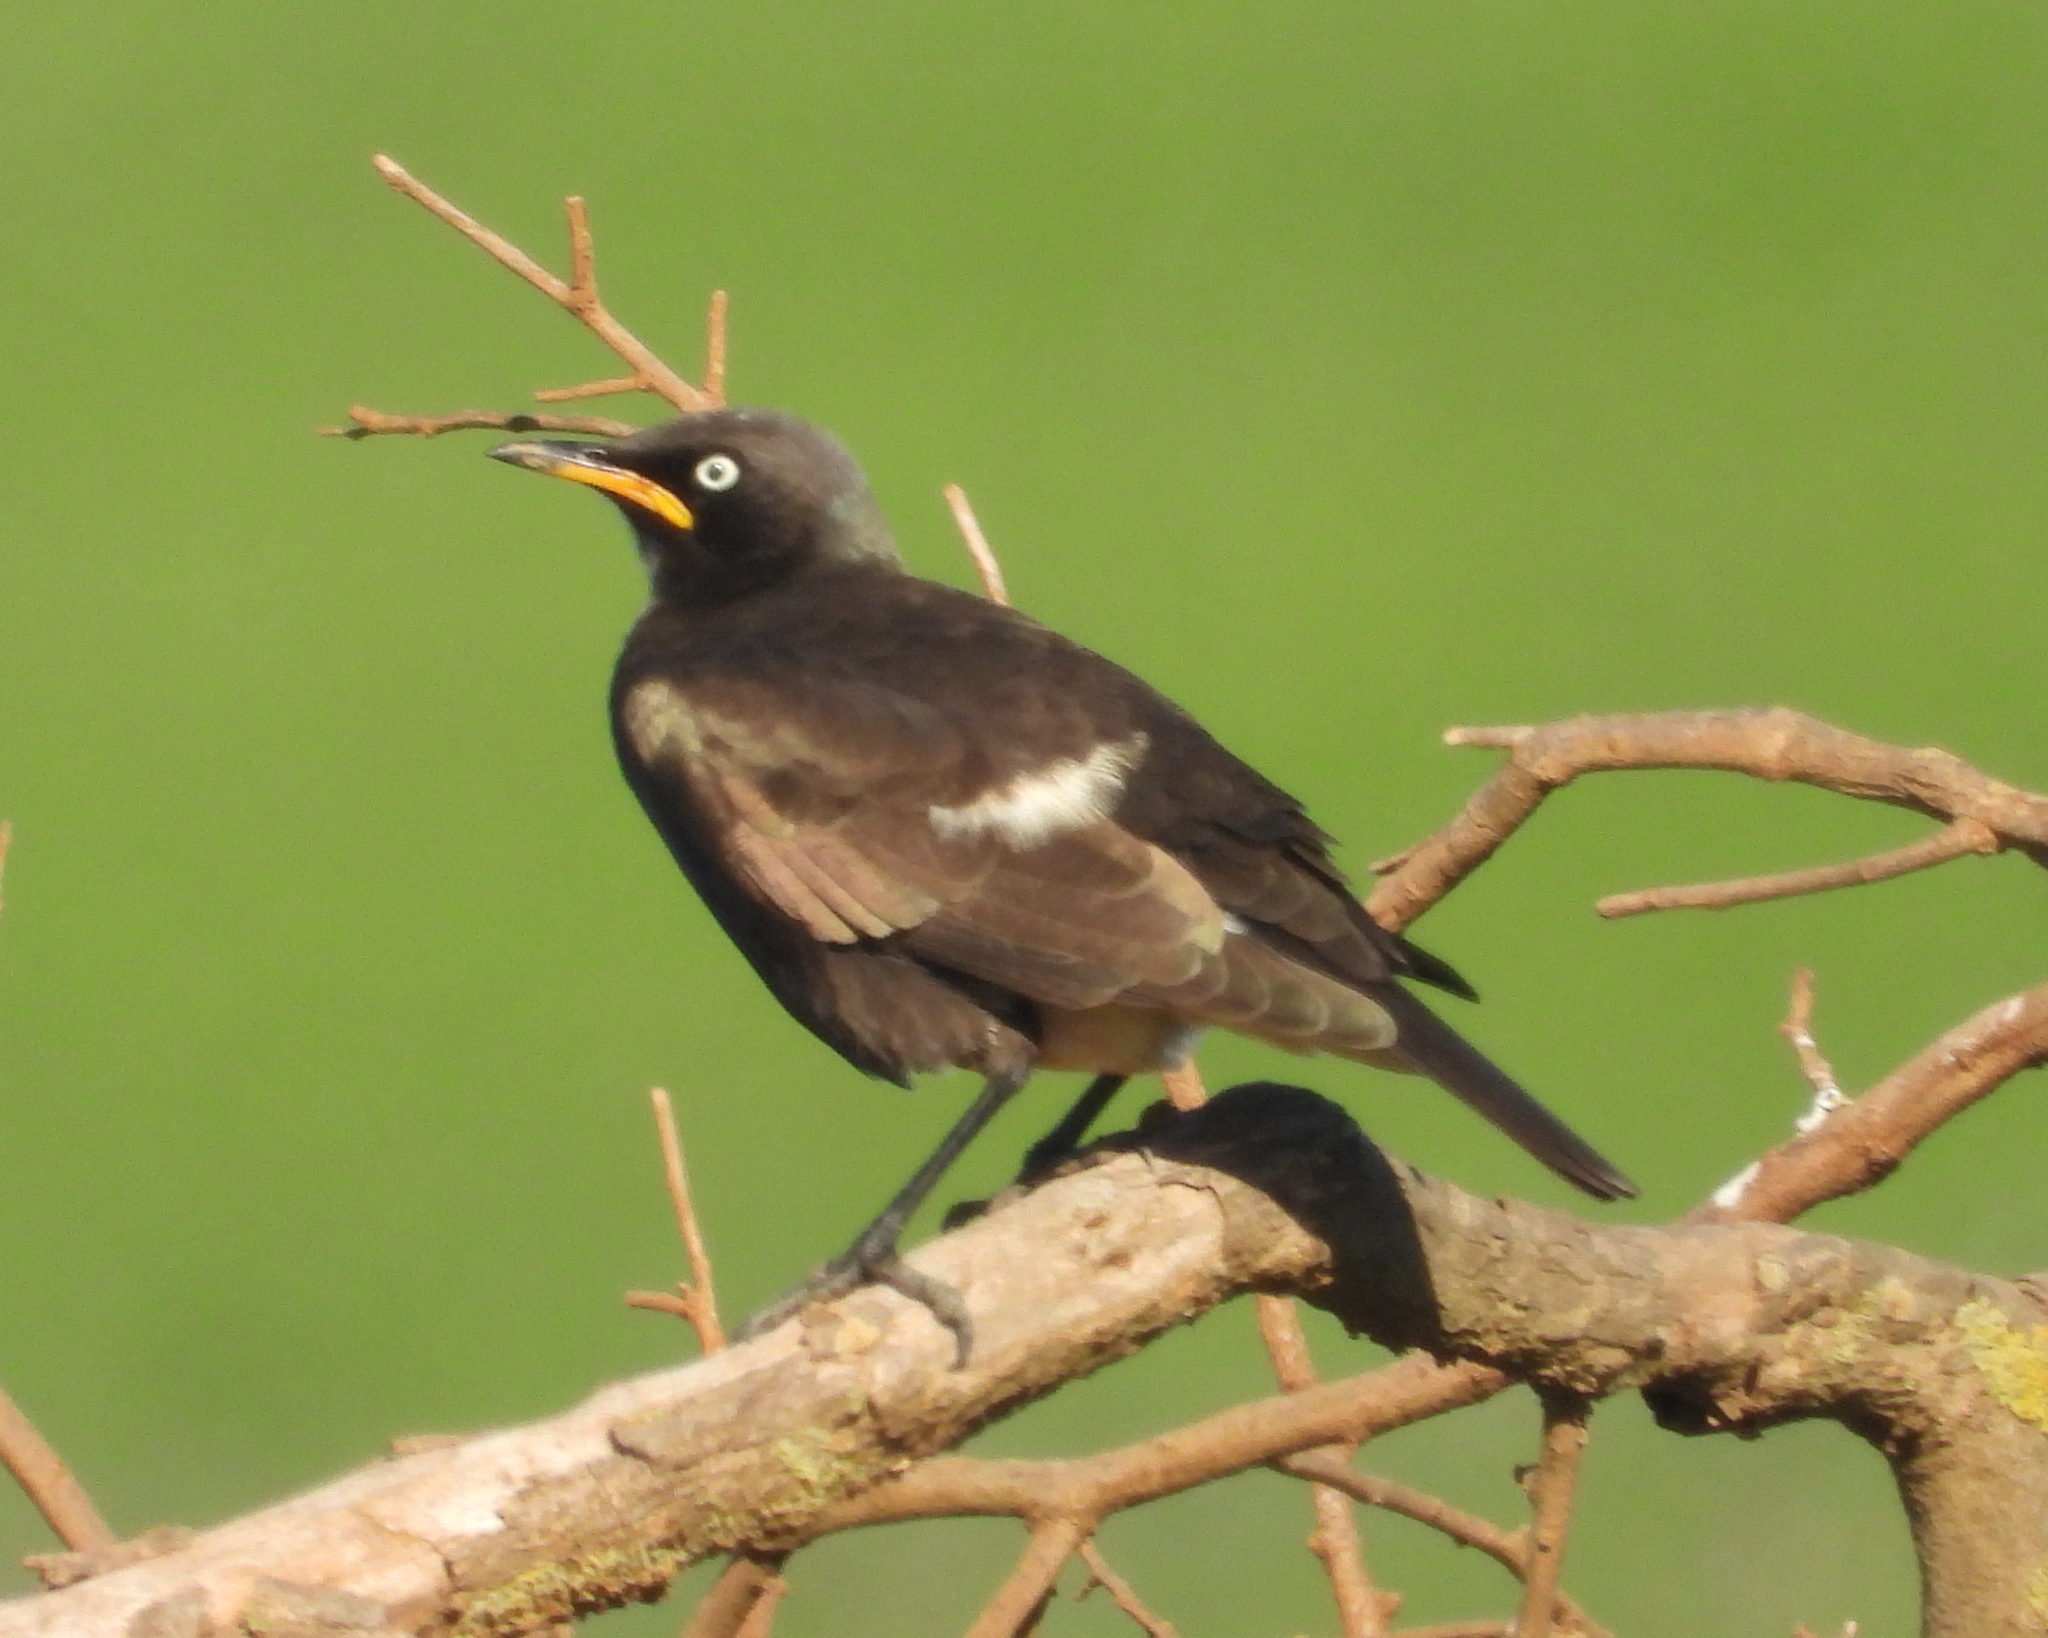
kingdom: Animalia
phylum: Chordata
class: Aves
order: Passeriformes
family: Sturnidae
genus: Lamprotornis
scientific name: Lamprotornis bicolor
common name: Pied starling
